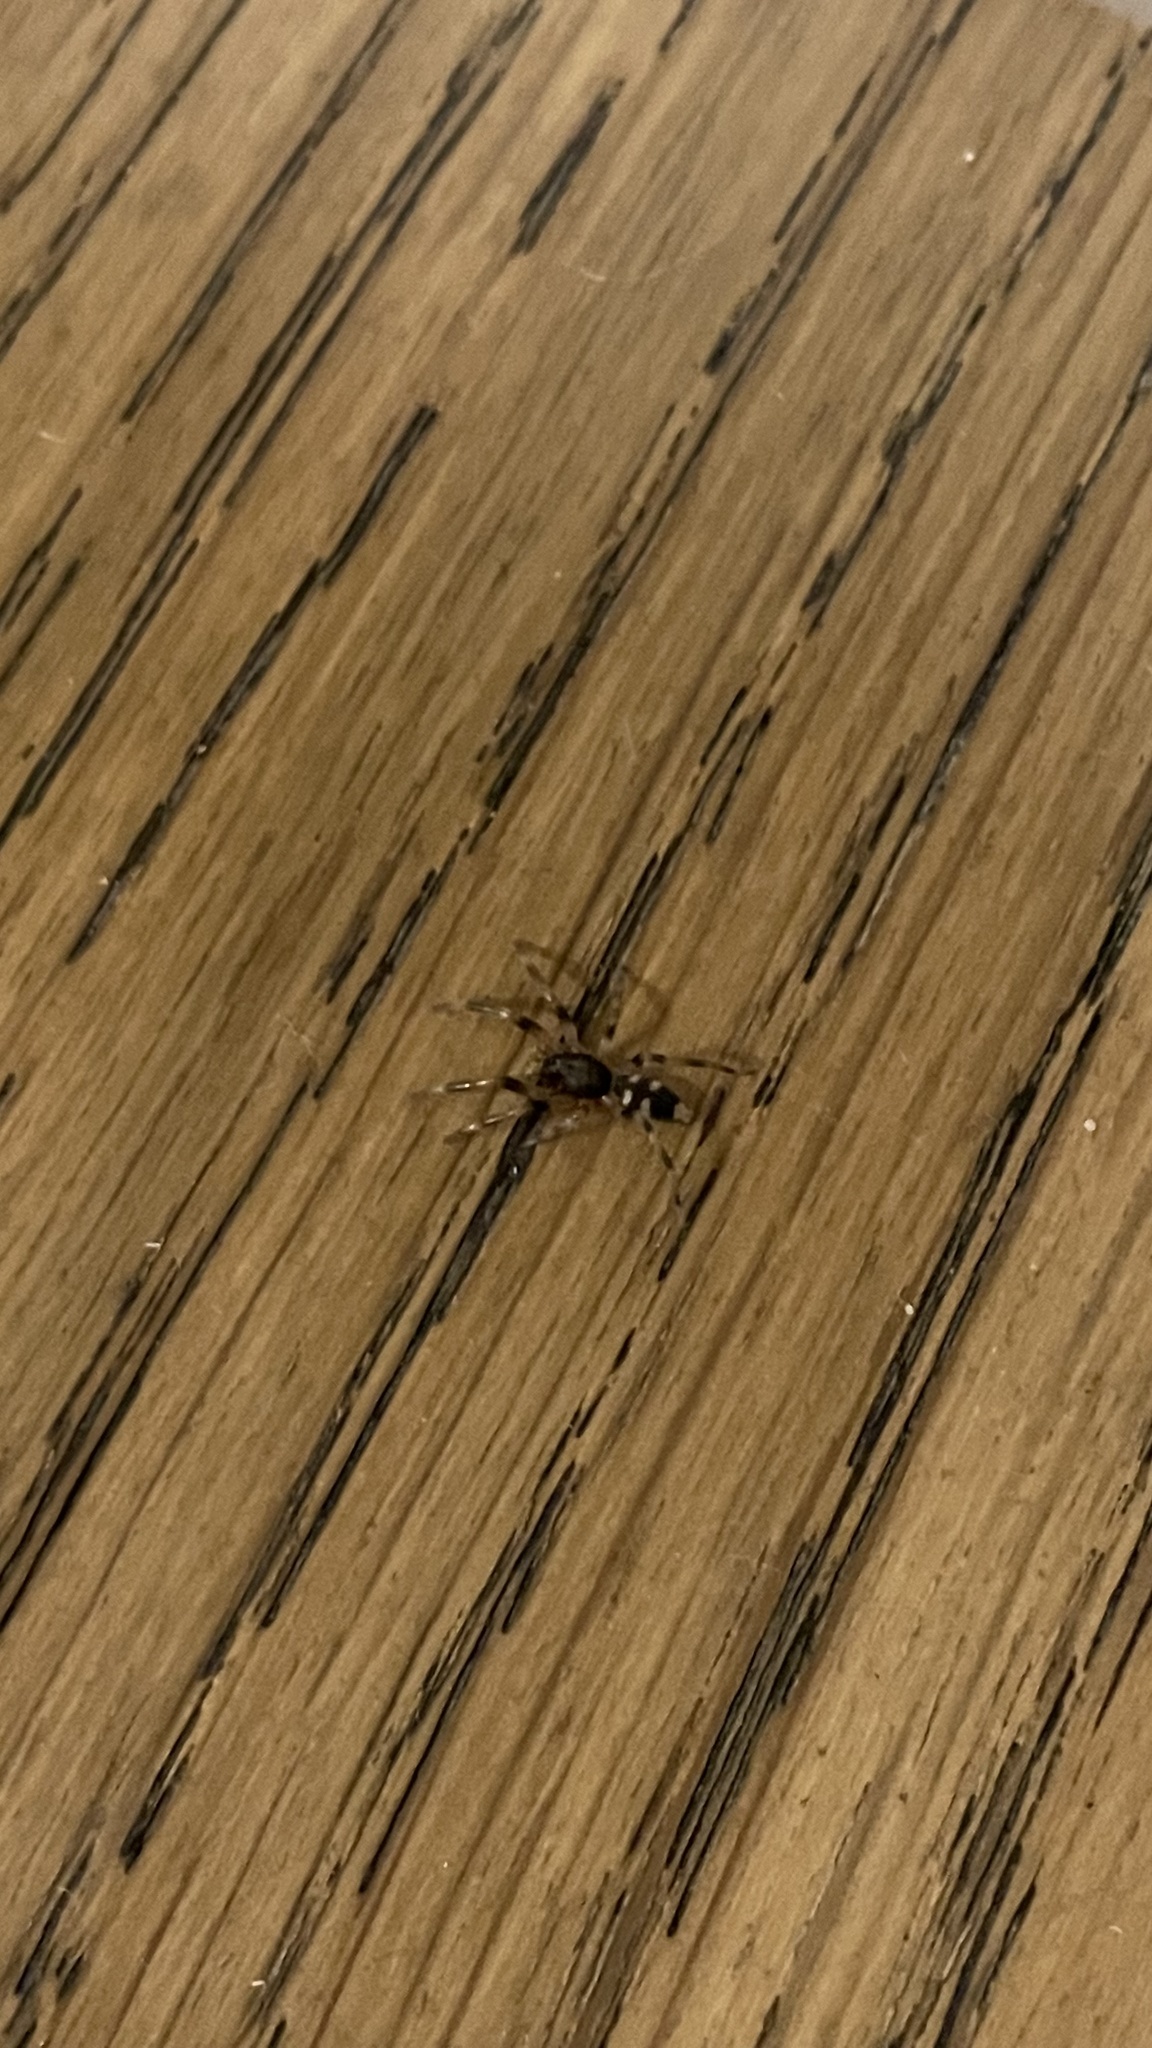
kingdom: Animalia
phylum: Arthropoda
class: Arachnida
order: Araneae
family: Lamponidae
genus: Lampona
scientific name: Lampona
